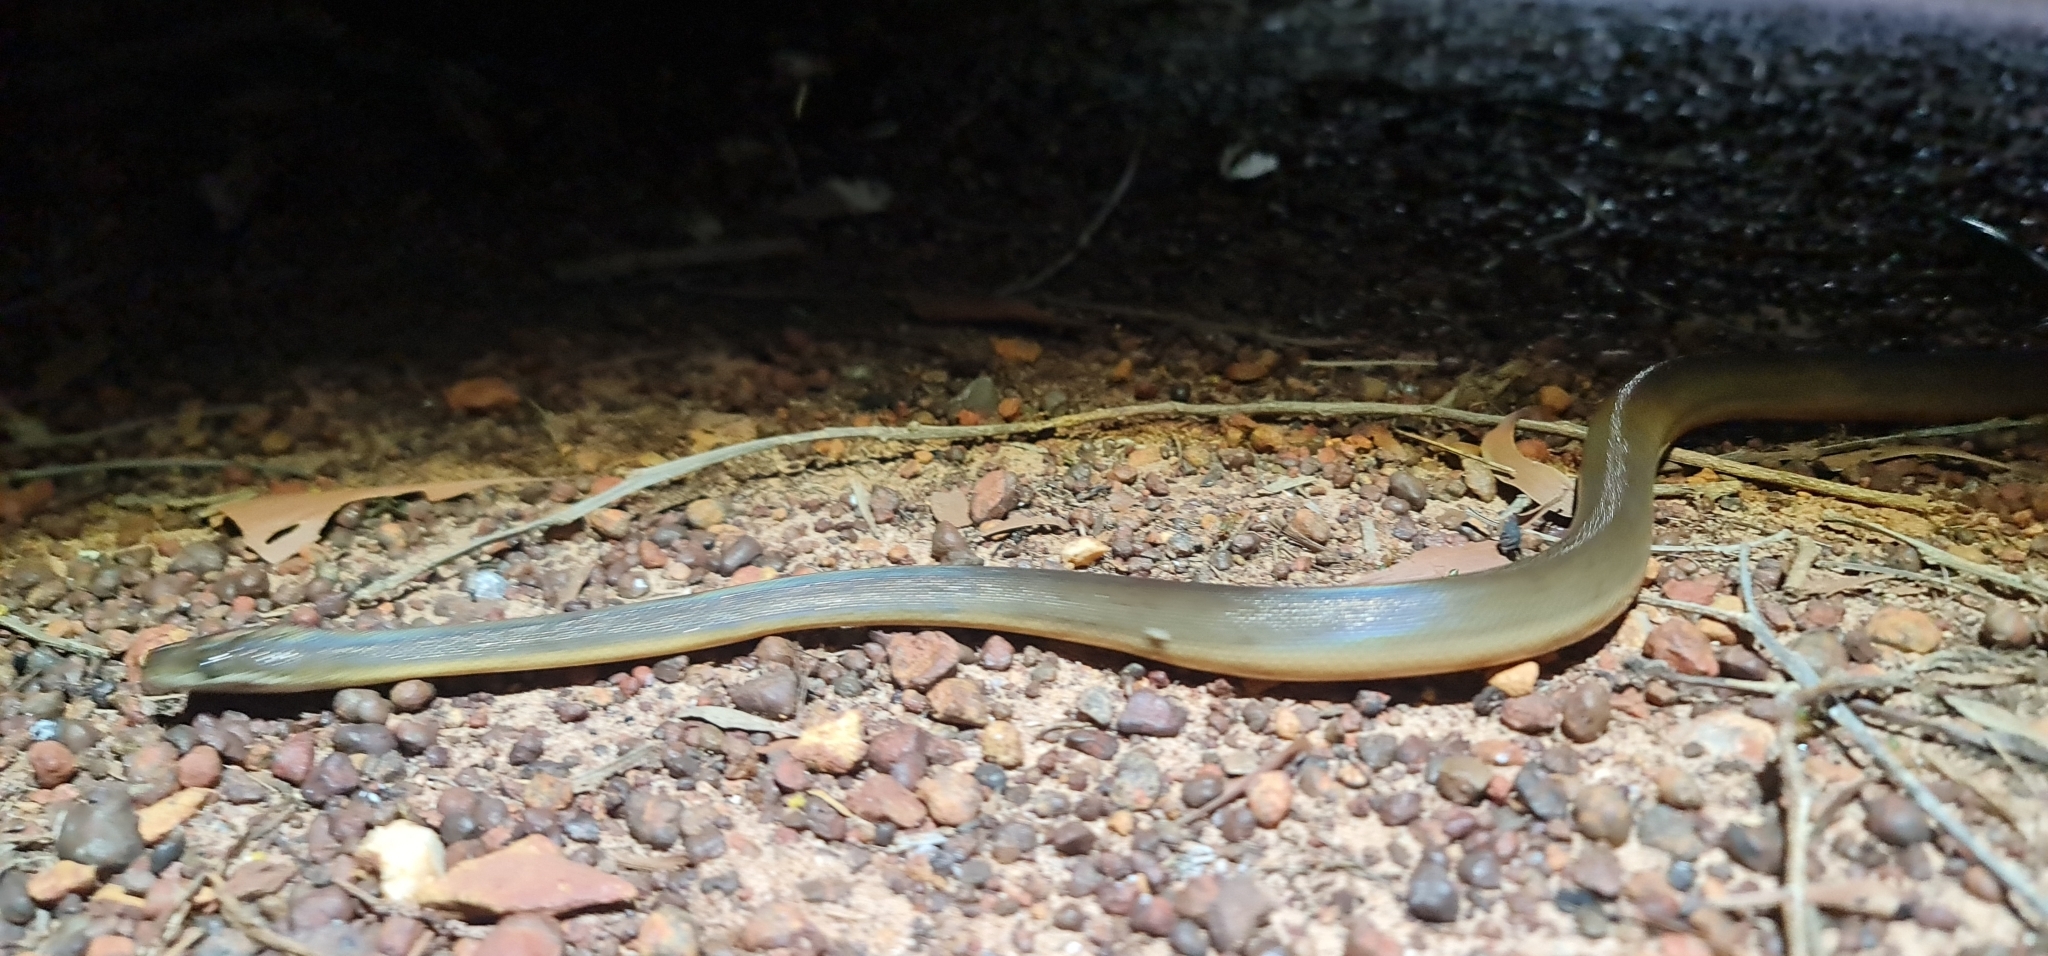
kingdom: Animalia
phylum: Chordata
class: Squamata
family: Pythonidae
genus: Liasis
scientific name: Liasis fuscus
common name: Brown water python
